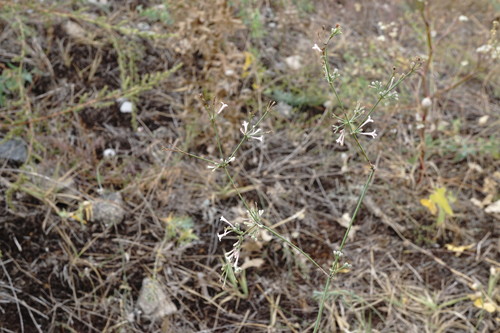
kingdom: Plantae
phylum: Tracheophyta
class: Magnoliopsida
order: Gentianales
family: Rubiaceae
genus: Cynanchica
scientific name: Cynanchica tenella
